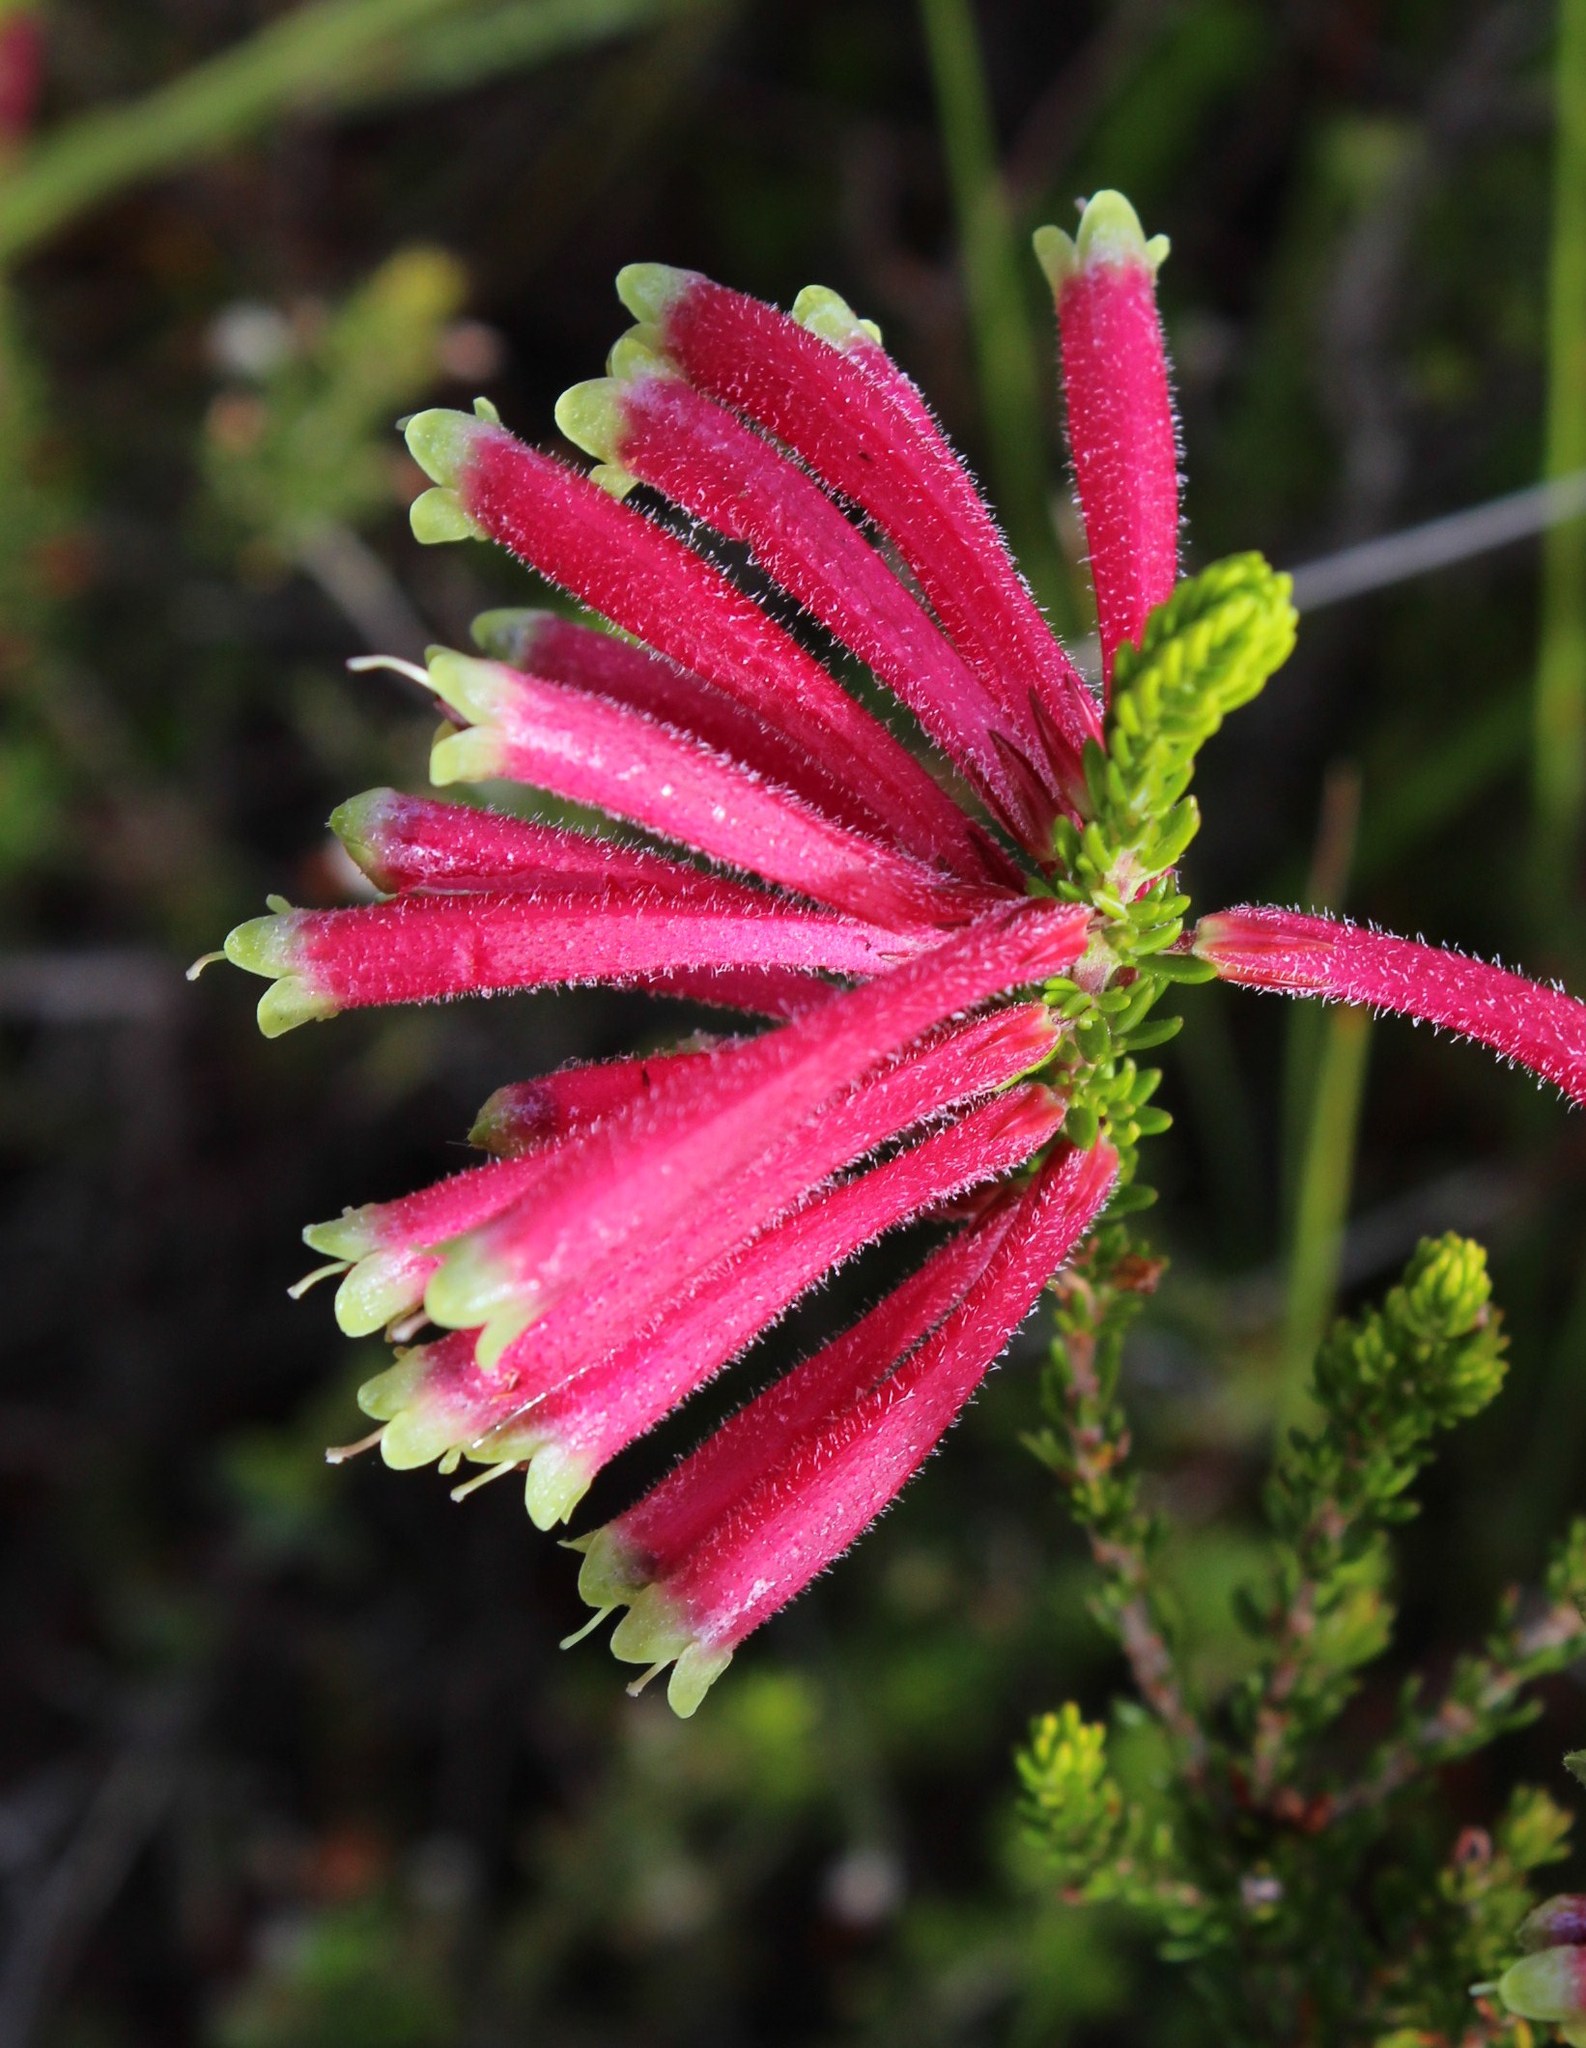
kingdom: Plantae
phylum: Tracheophyta
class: Magnoliopsida
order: Ericales
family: Ericaceae
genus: Erica
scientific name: Erica densifolia
